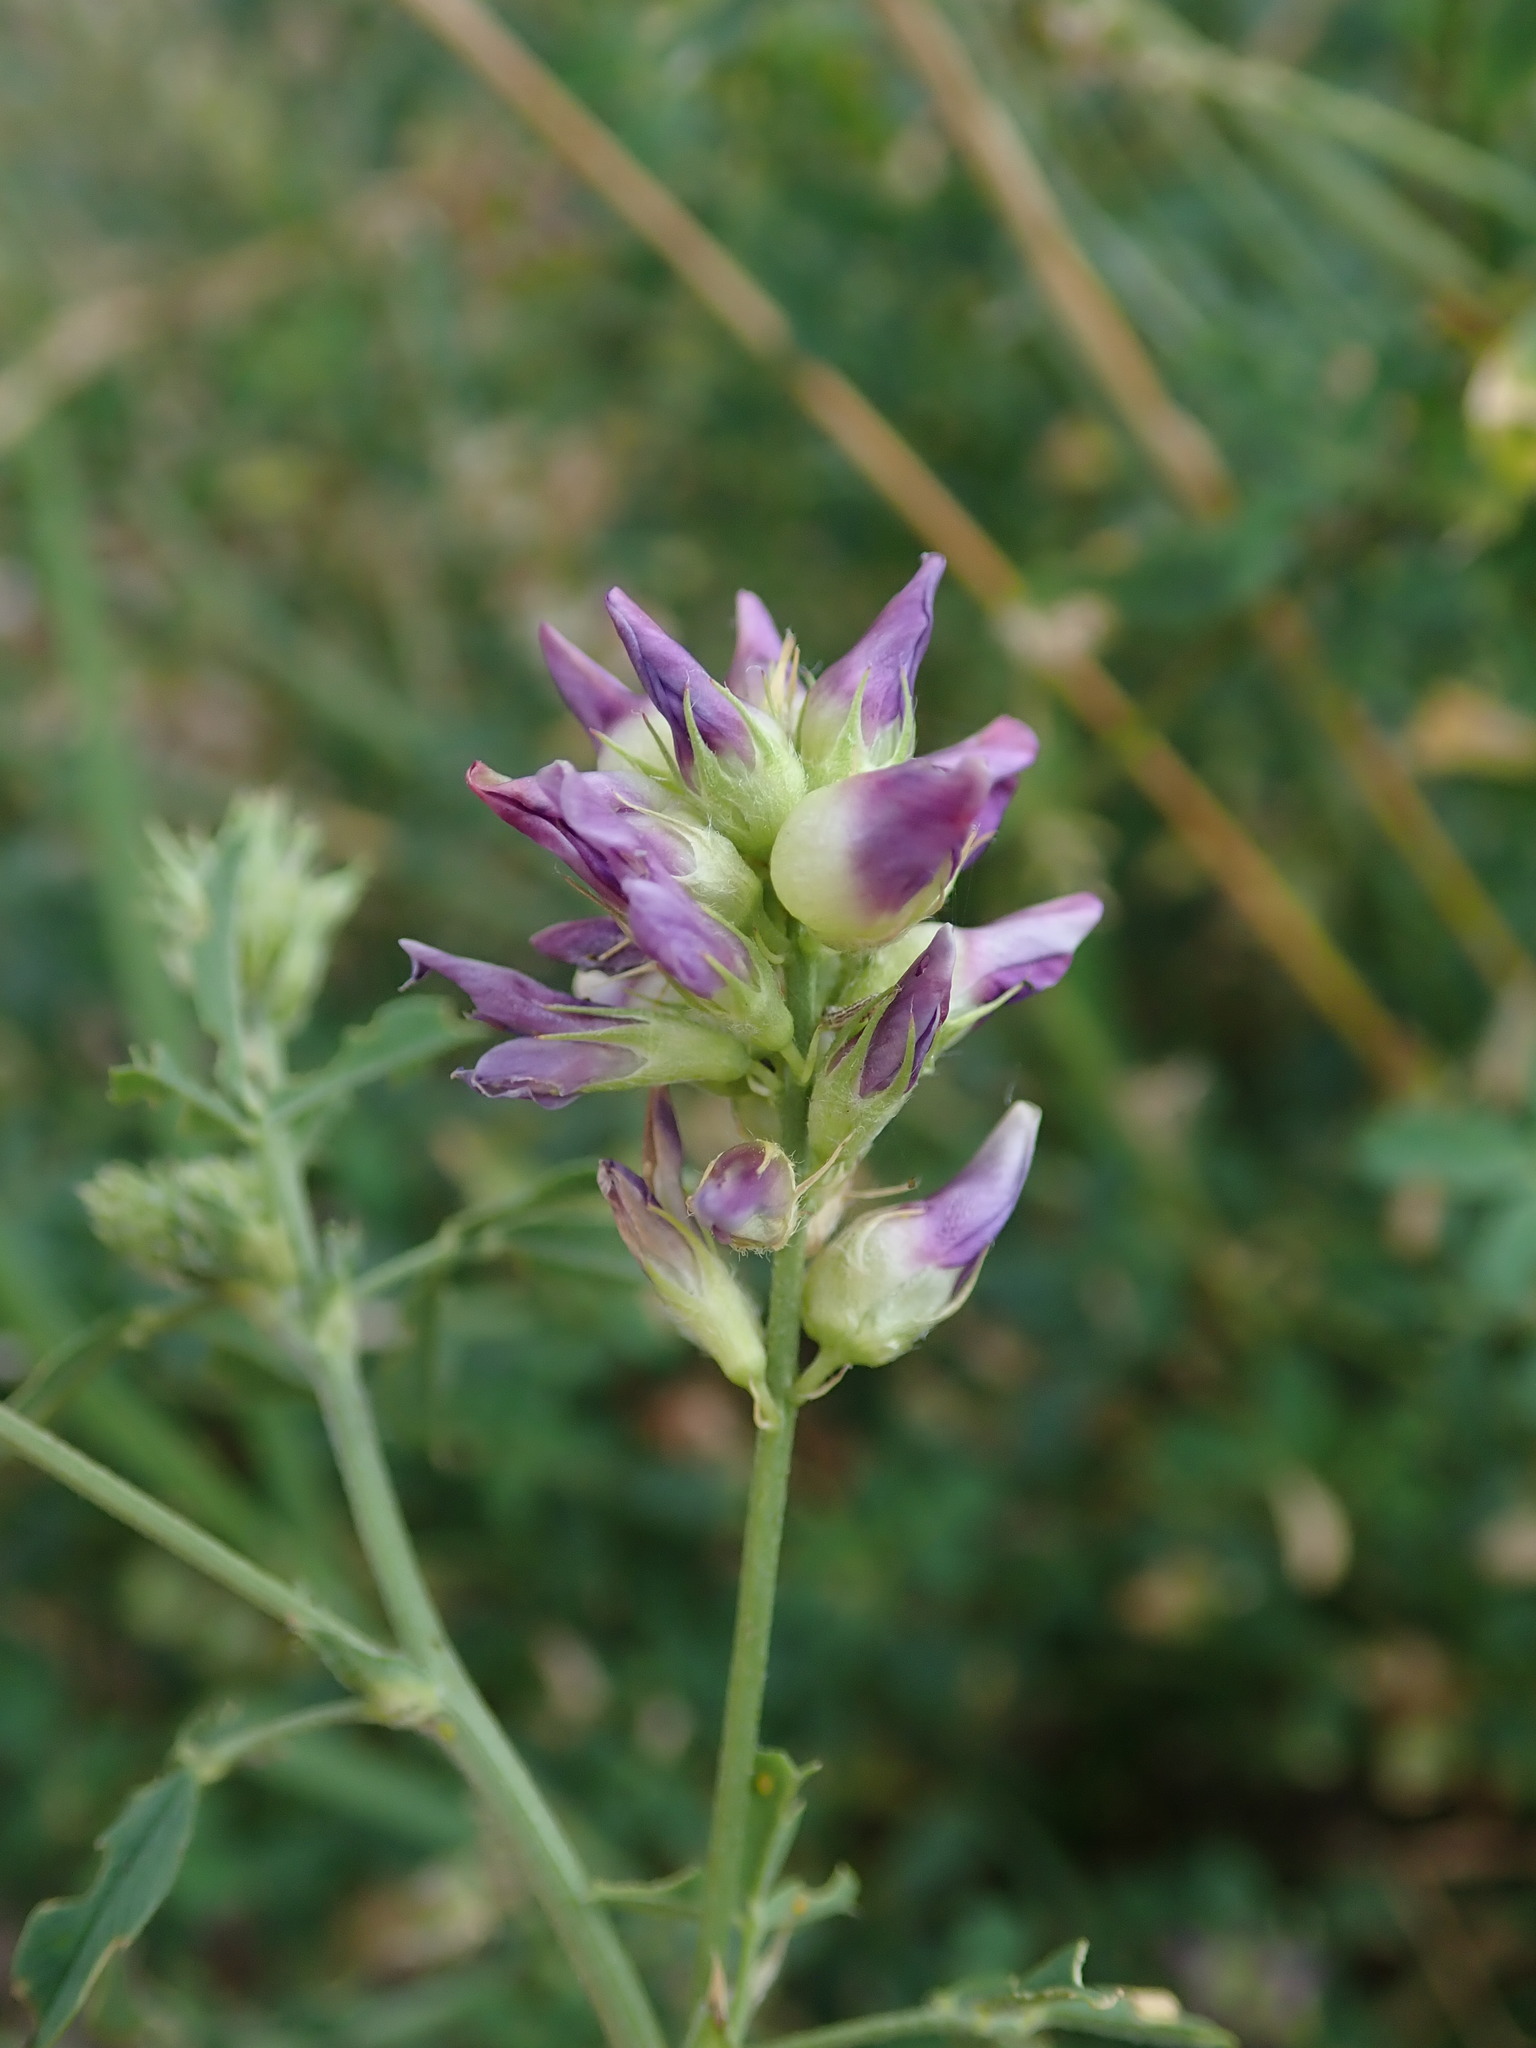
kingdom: Plantae
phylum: Tracheophyta
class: Magnoliopsida
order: Fabales
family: Fabaceae
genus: Medicago
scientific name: Medicago sativa
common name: Alfalfa
